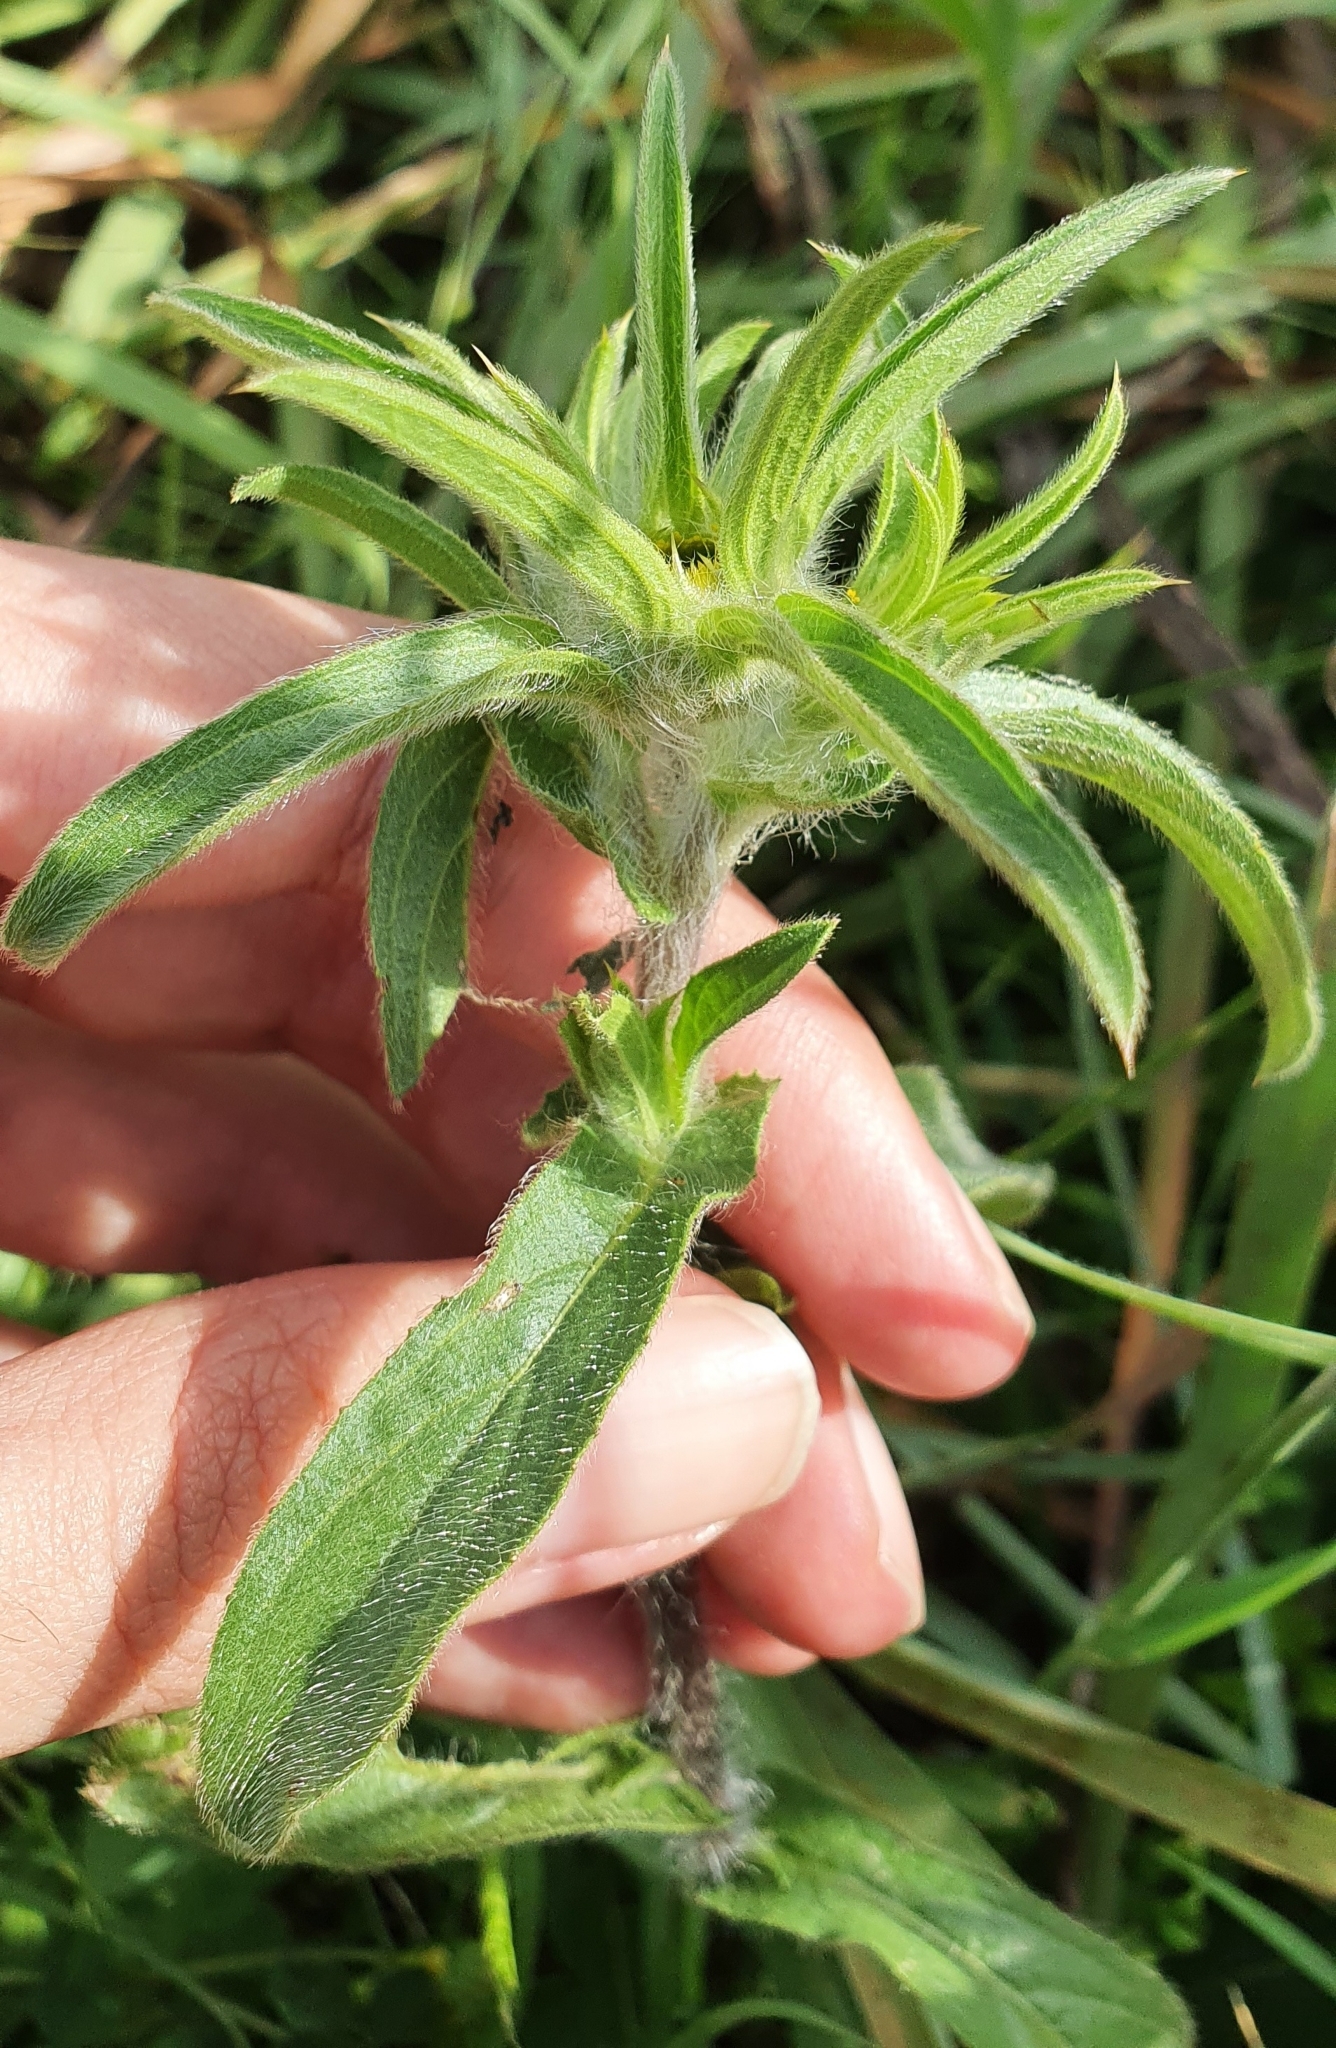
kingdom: Plantae
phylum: Tracheophyta
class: Magnoliopsida
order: Asterales
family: Asteraceae
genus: Pallenis
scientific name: Pallenis spinosa
